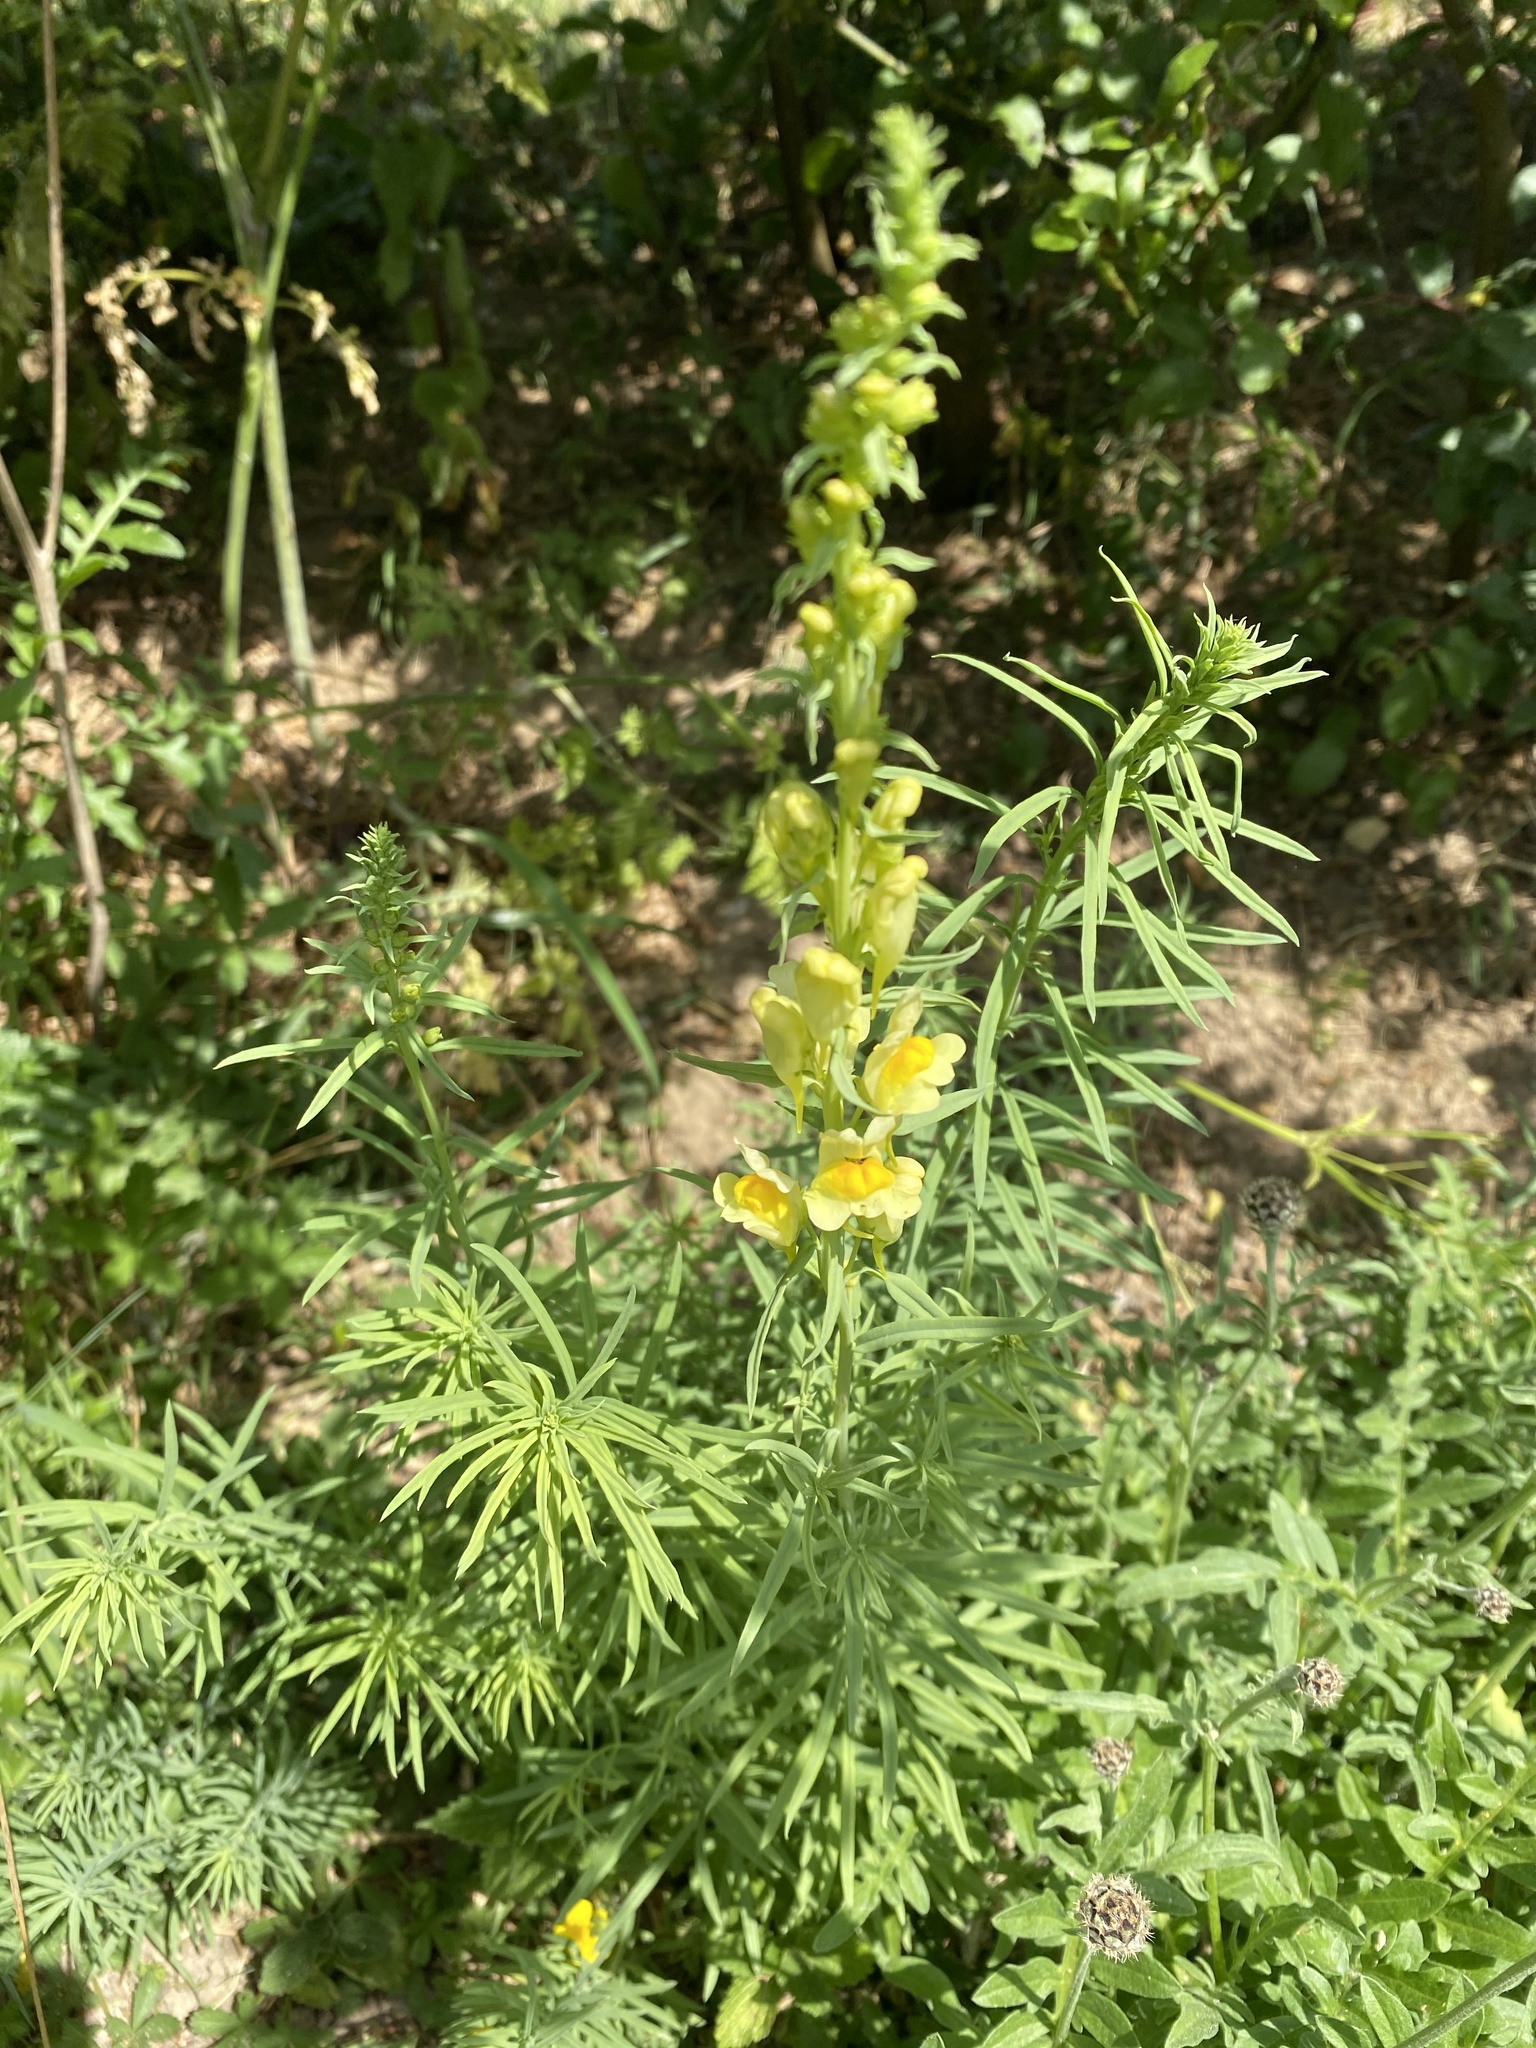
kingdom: Plantae
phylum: Tracheophyta
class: Magnoliopsida
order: Lamiales
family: Plantaginaceae
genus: Linaria
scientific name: Linaria vulgaris
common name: Butter and eggs
